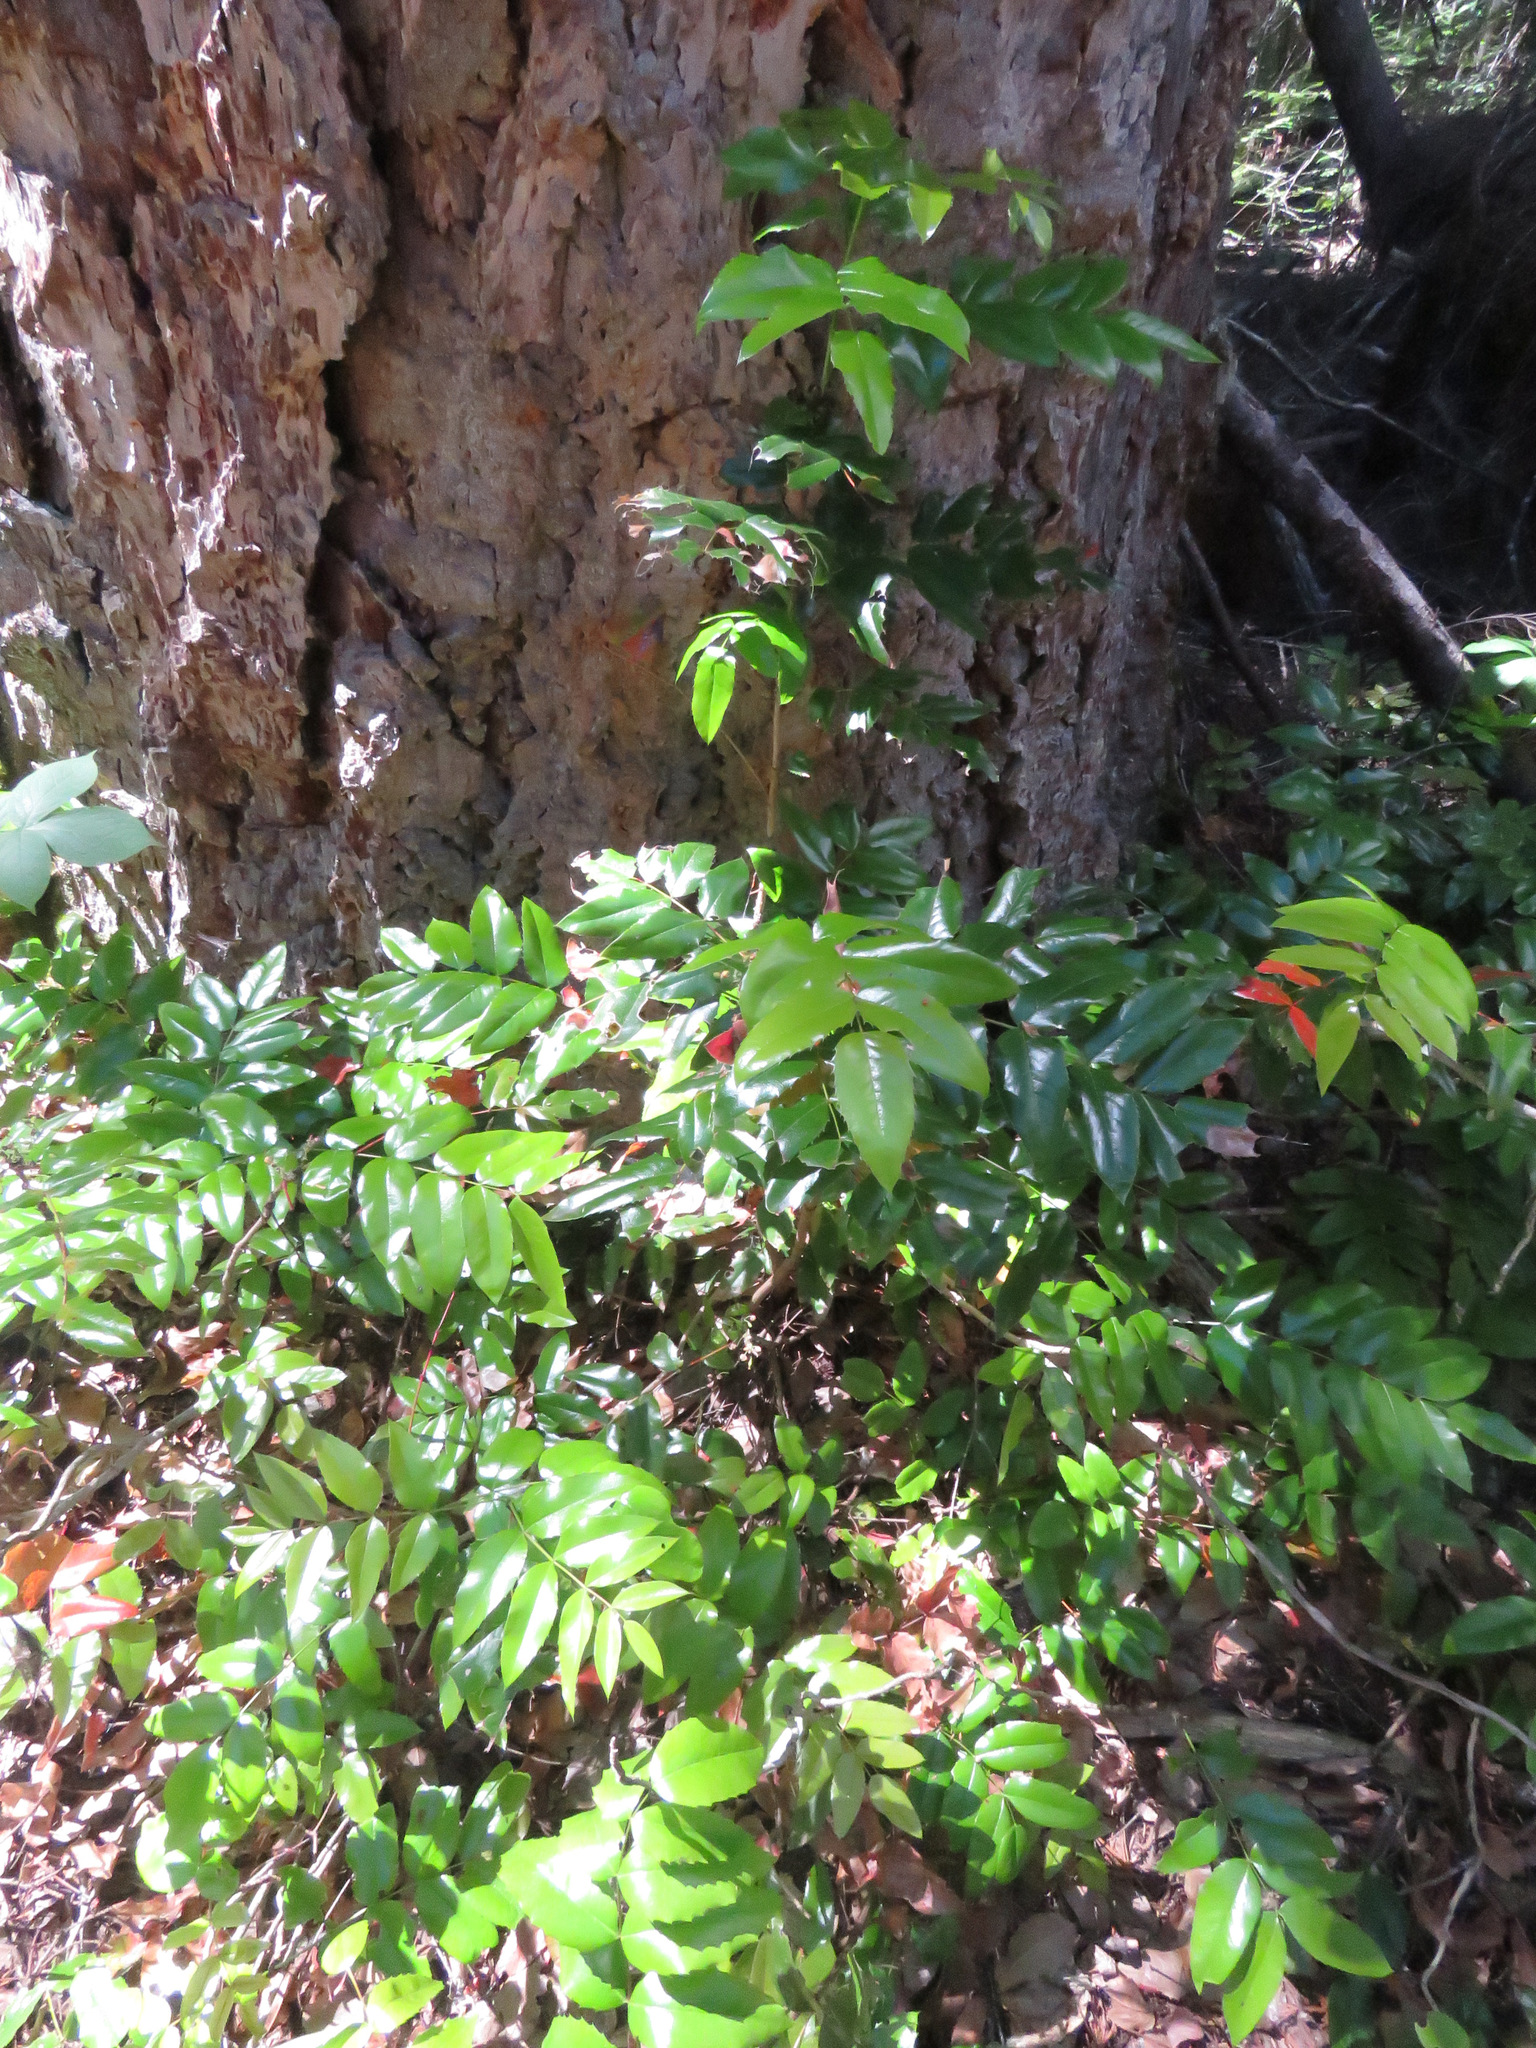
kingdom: Plantae
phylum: Tracheophyta
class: Magnoliopsida
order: Ranunculales
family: Berberidaceae
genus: Mahonia
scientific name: Mahonia aquifolium
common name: Oregon-grape
